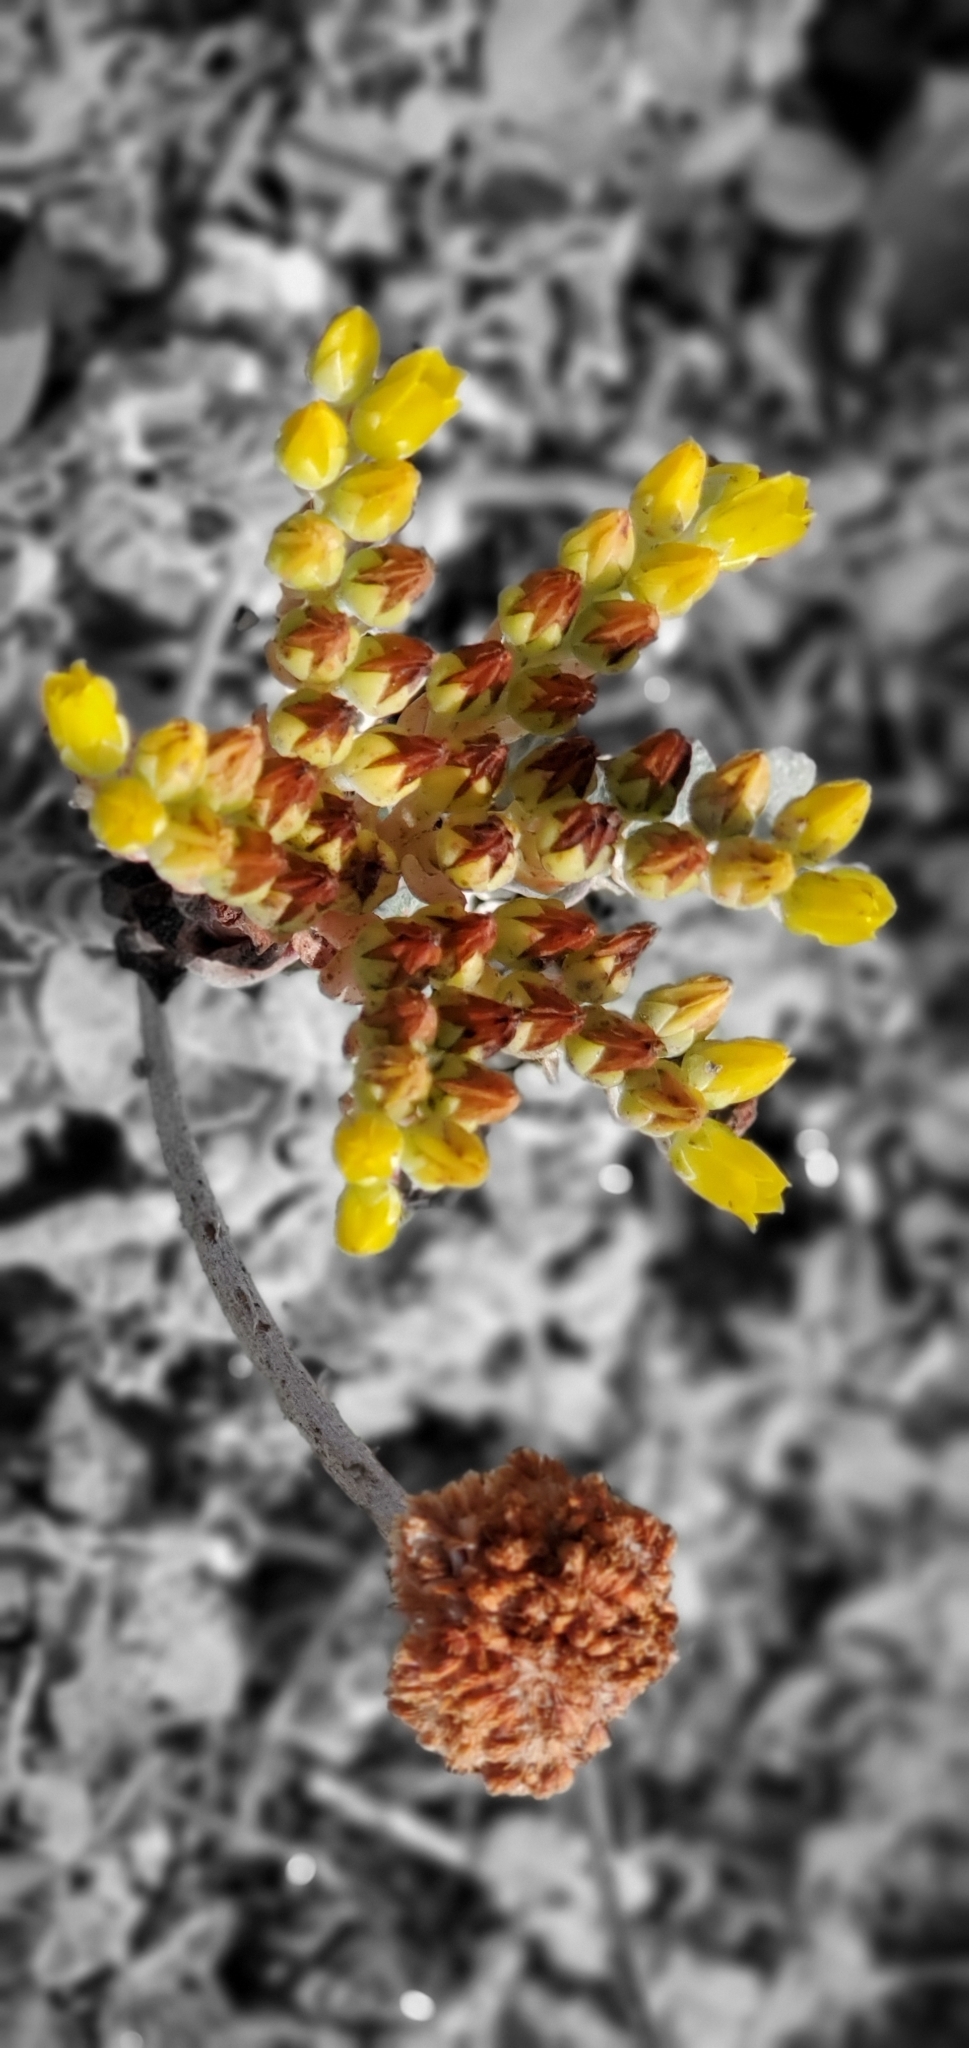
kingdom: Plantae
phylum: Tracheophyta
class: Magnoliopsida
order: Saxifragales
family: Crassulaceae
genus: Dudleya
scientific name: Dudleya caespitosa
